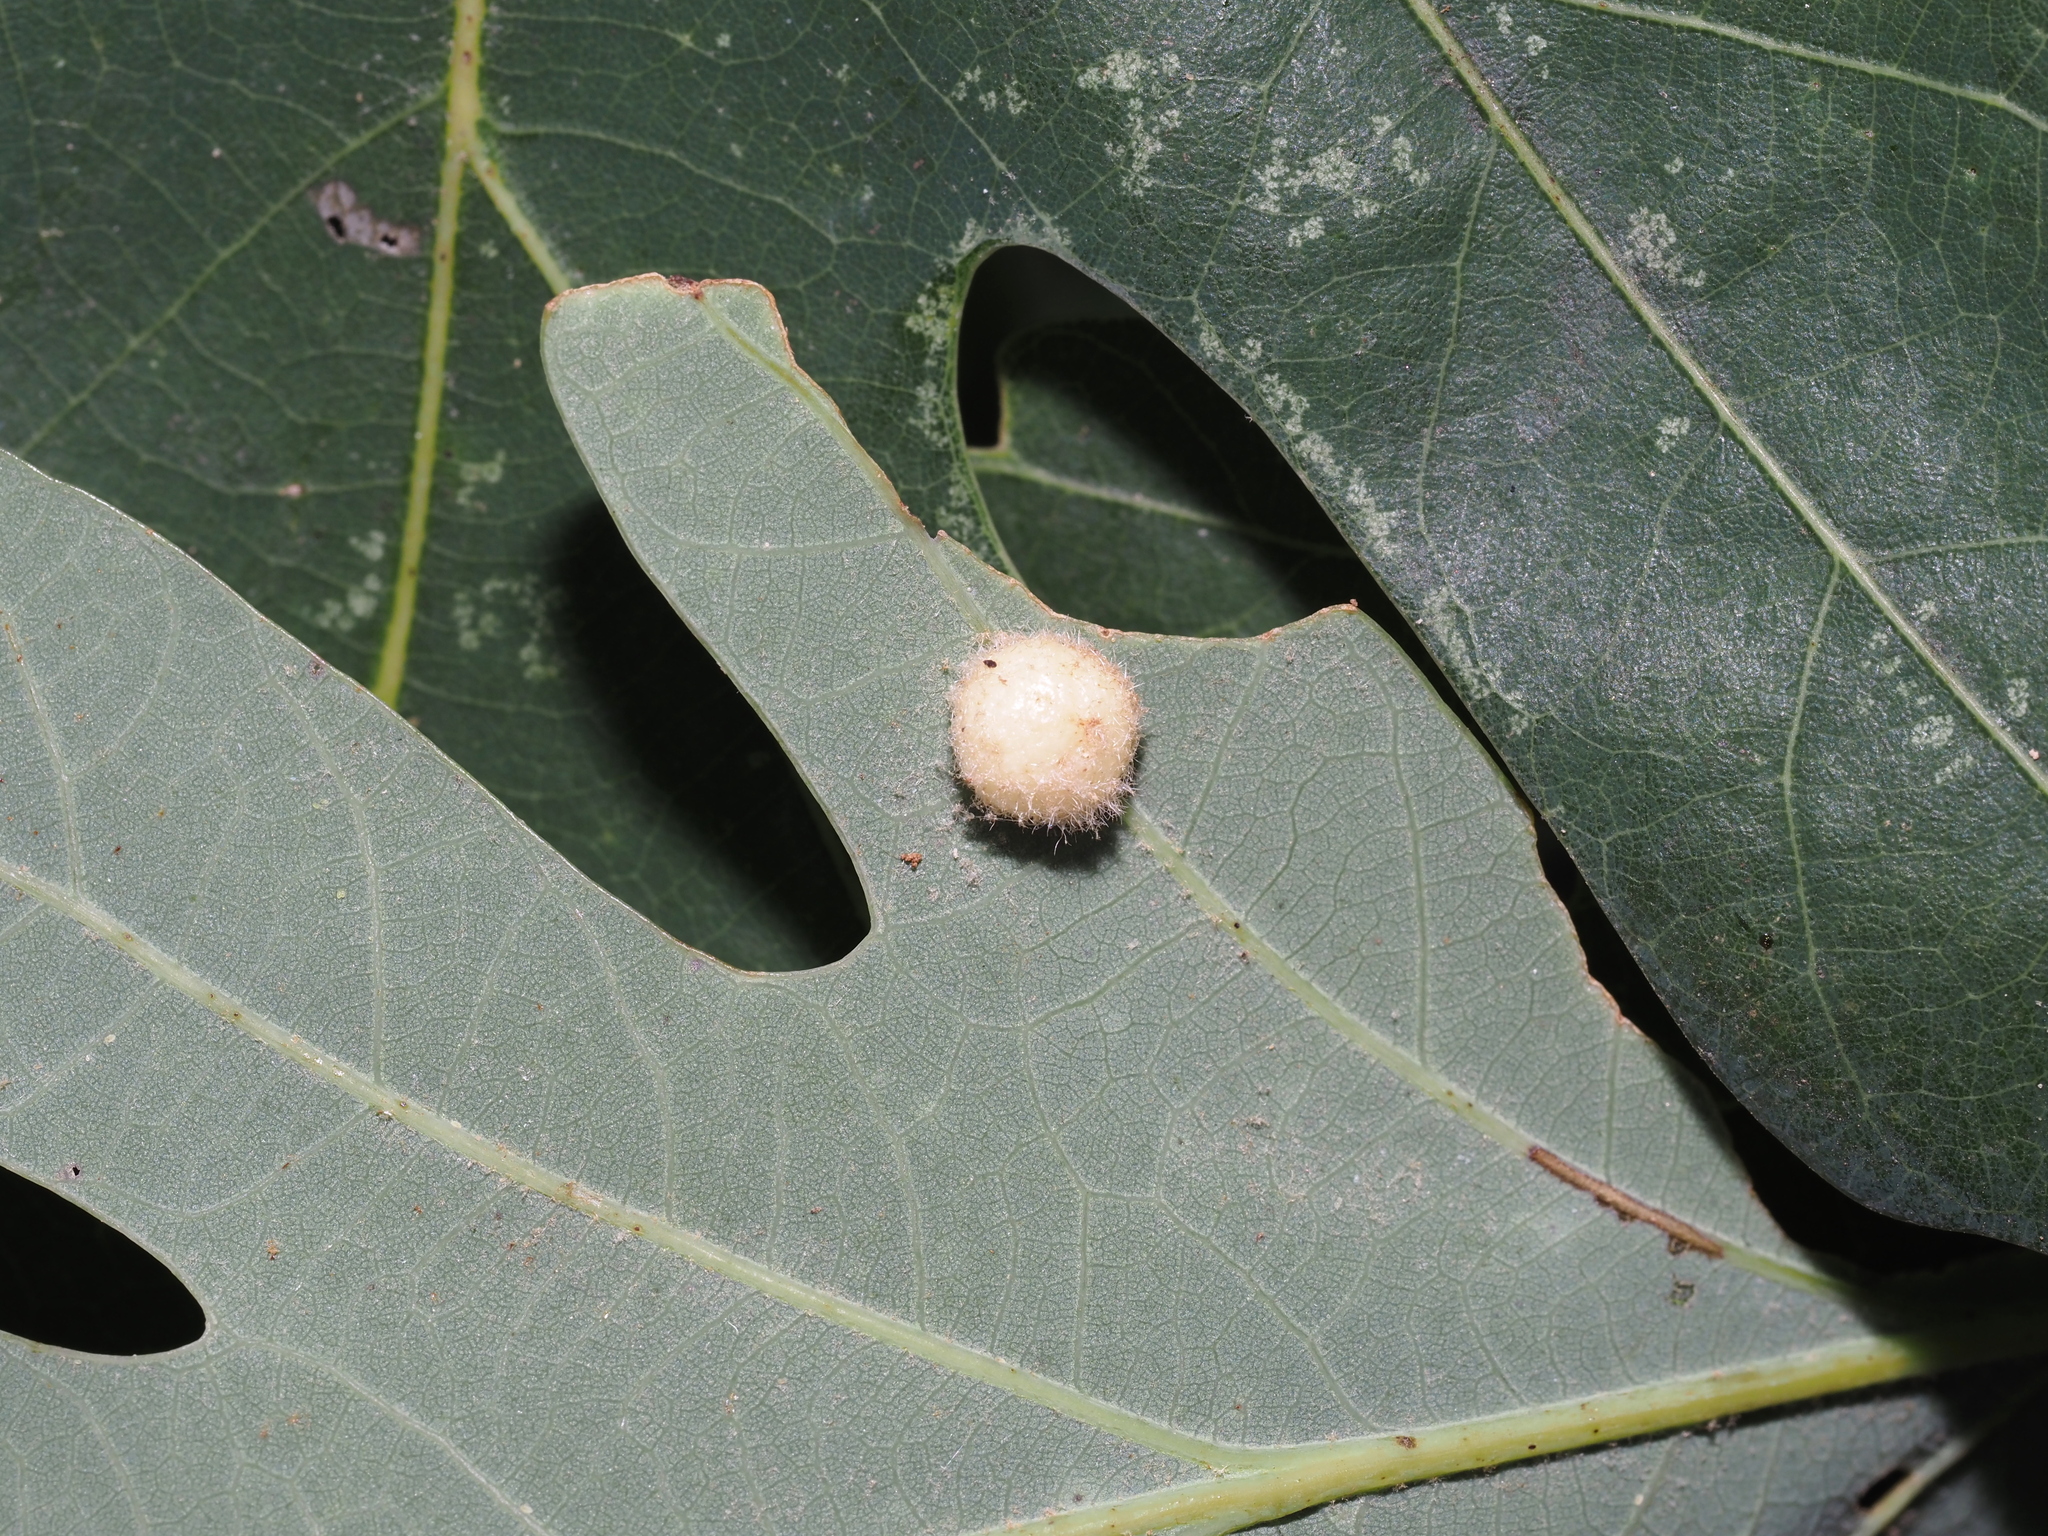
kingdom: Animalia
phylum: Arthropoda
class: Insecta
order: Hymenoptera
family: Cynipidae
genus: Philonix
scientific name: Philonix fulvicollis
